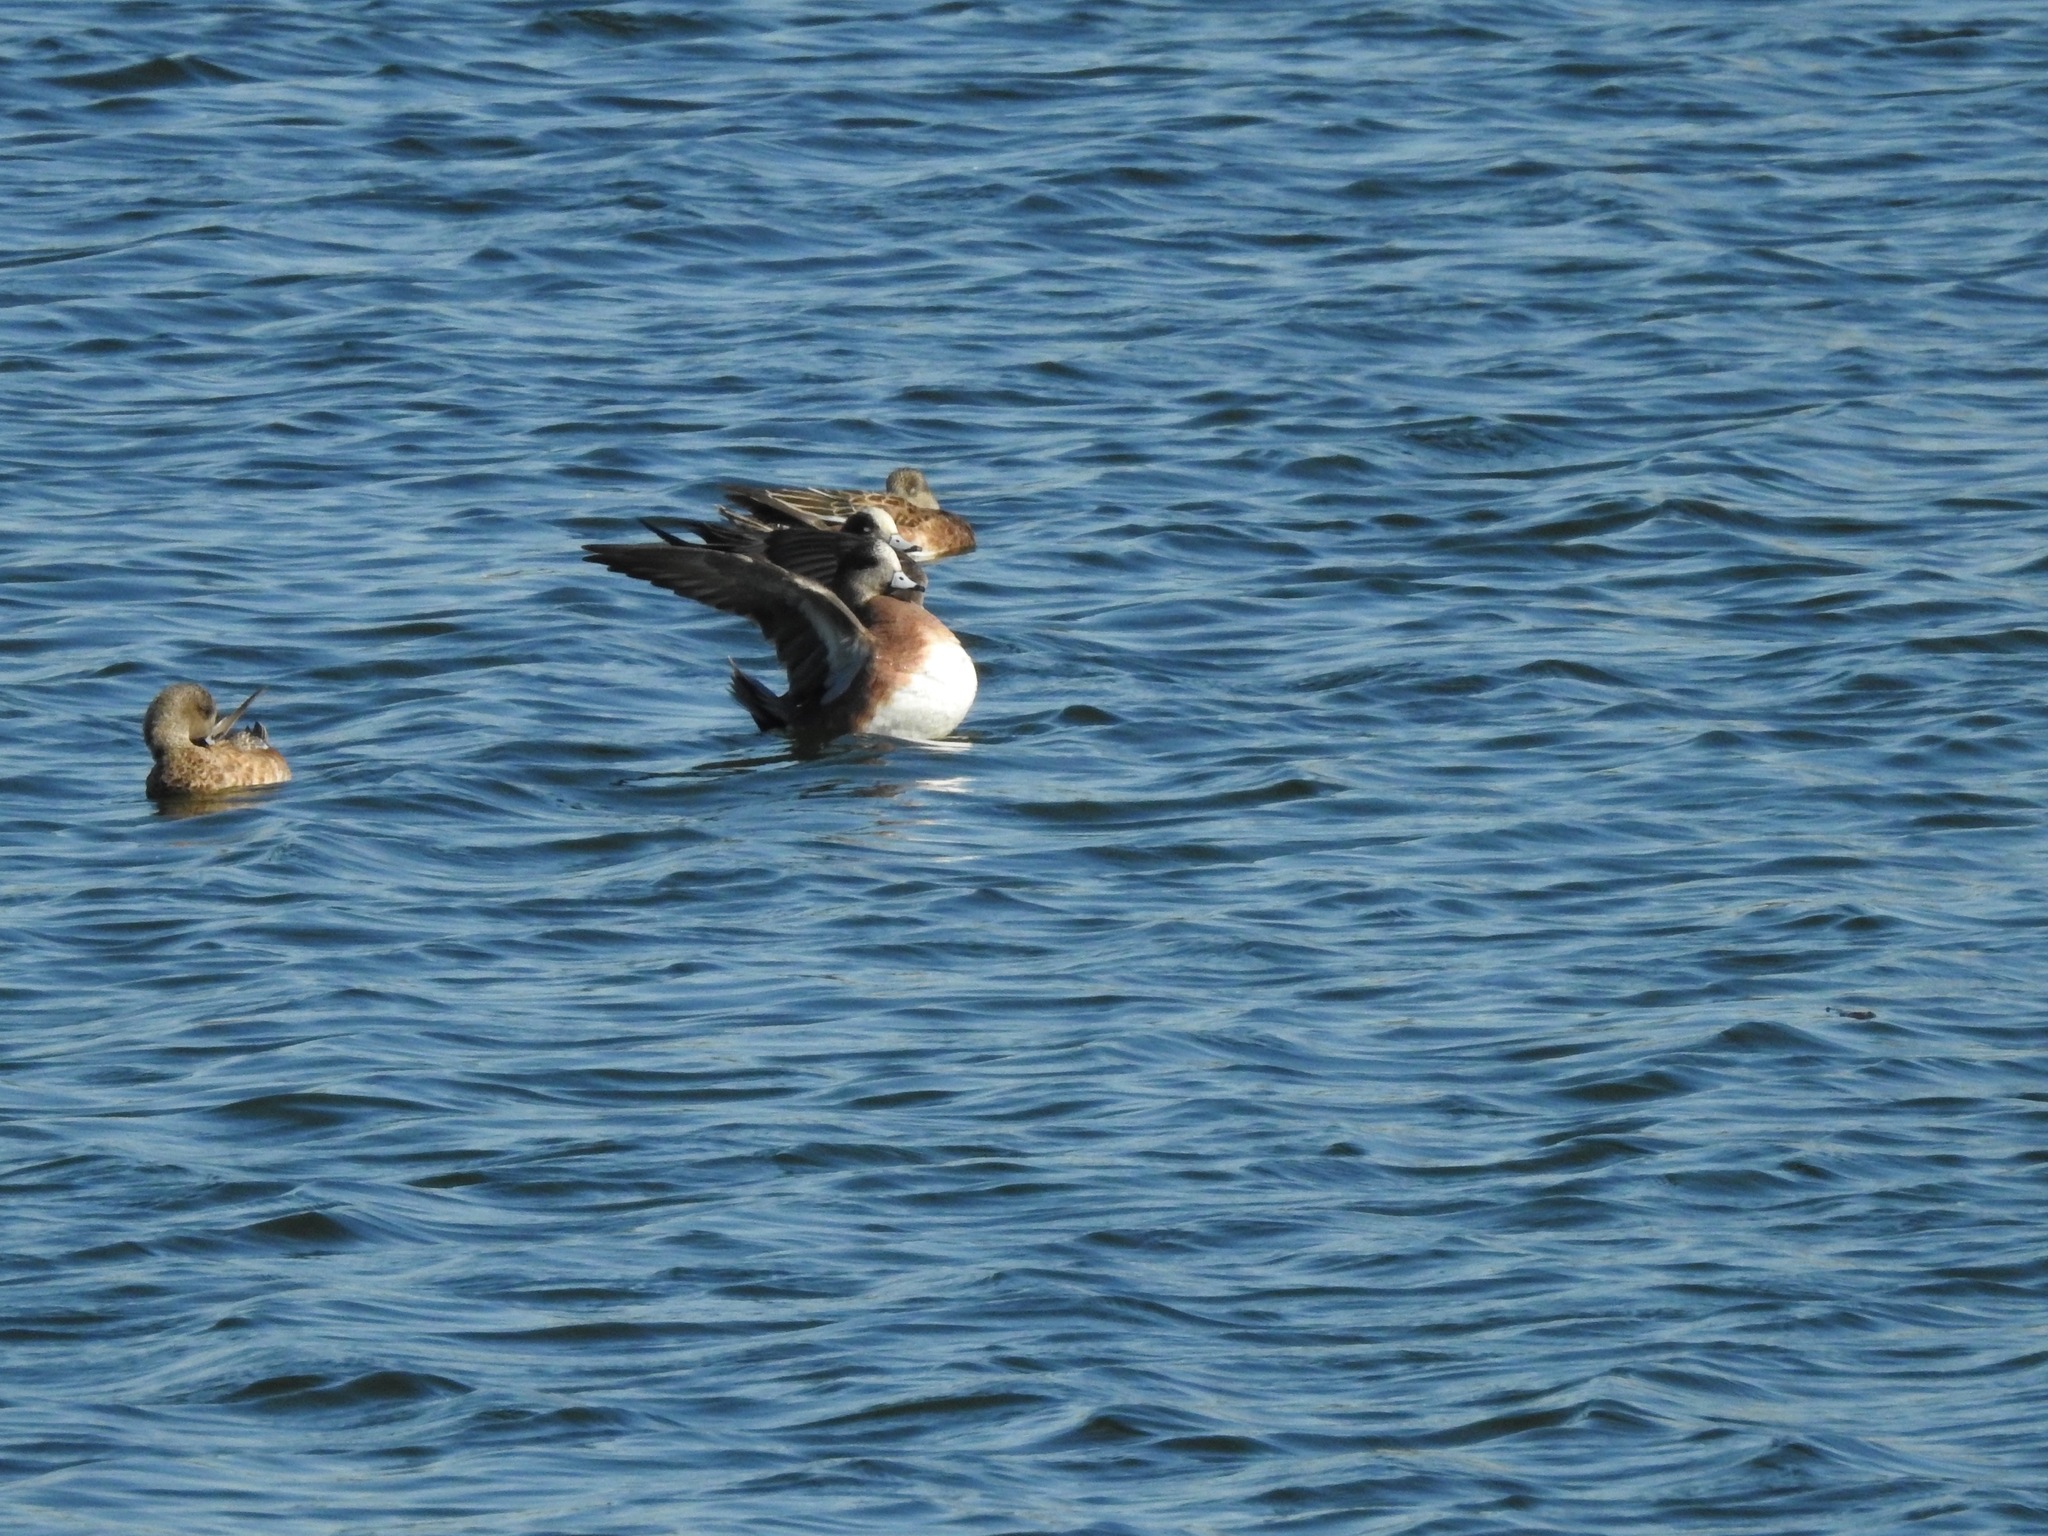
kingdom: Animalia
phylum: Chordata
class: Aves
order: Anseriformes
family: Anatidae
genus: Mareca
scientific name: Mareca americana
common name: American wigeon
